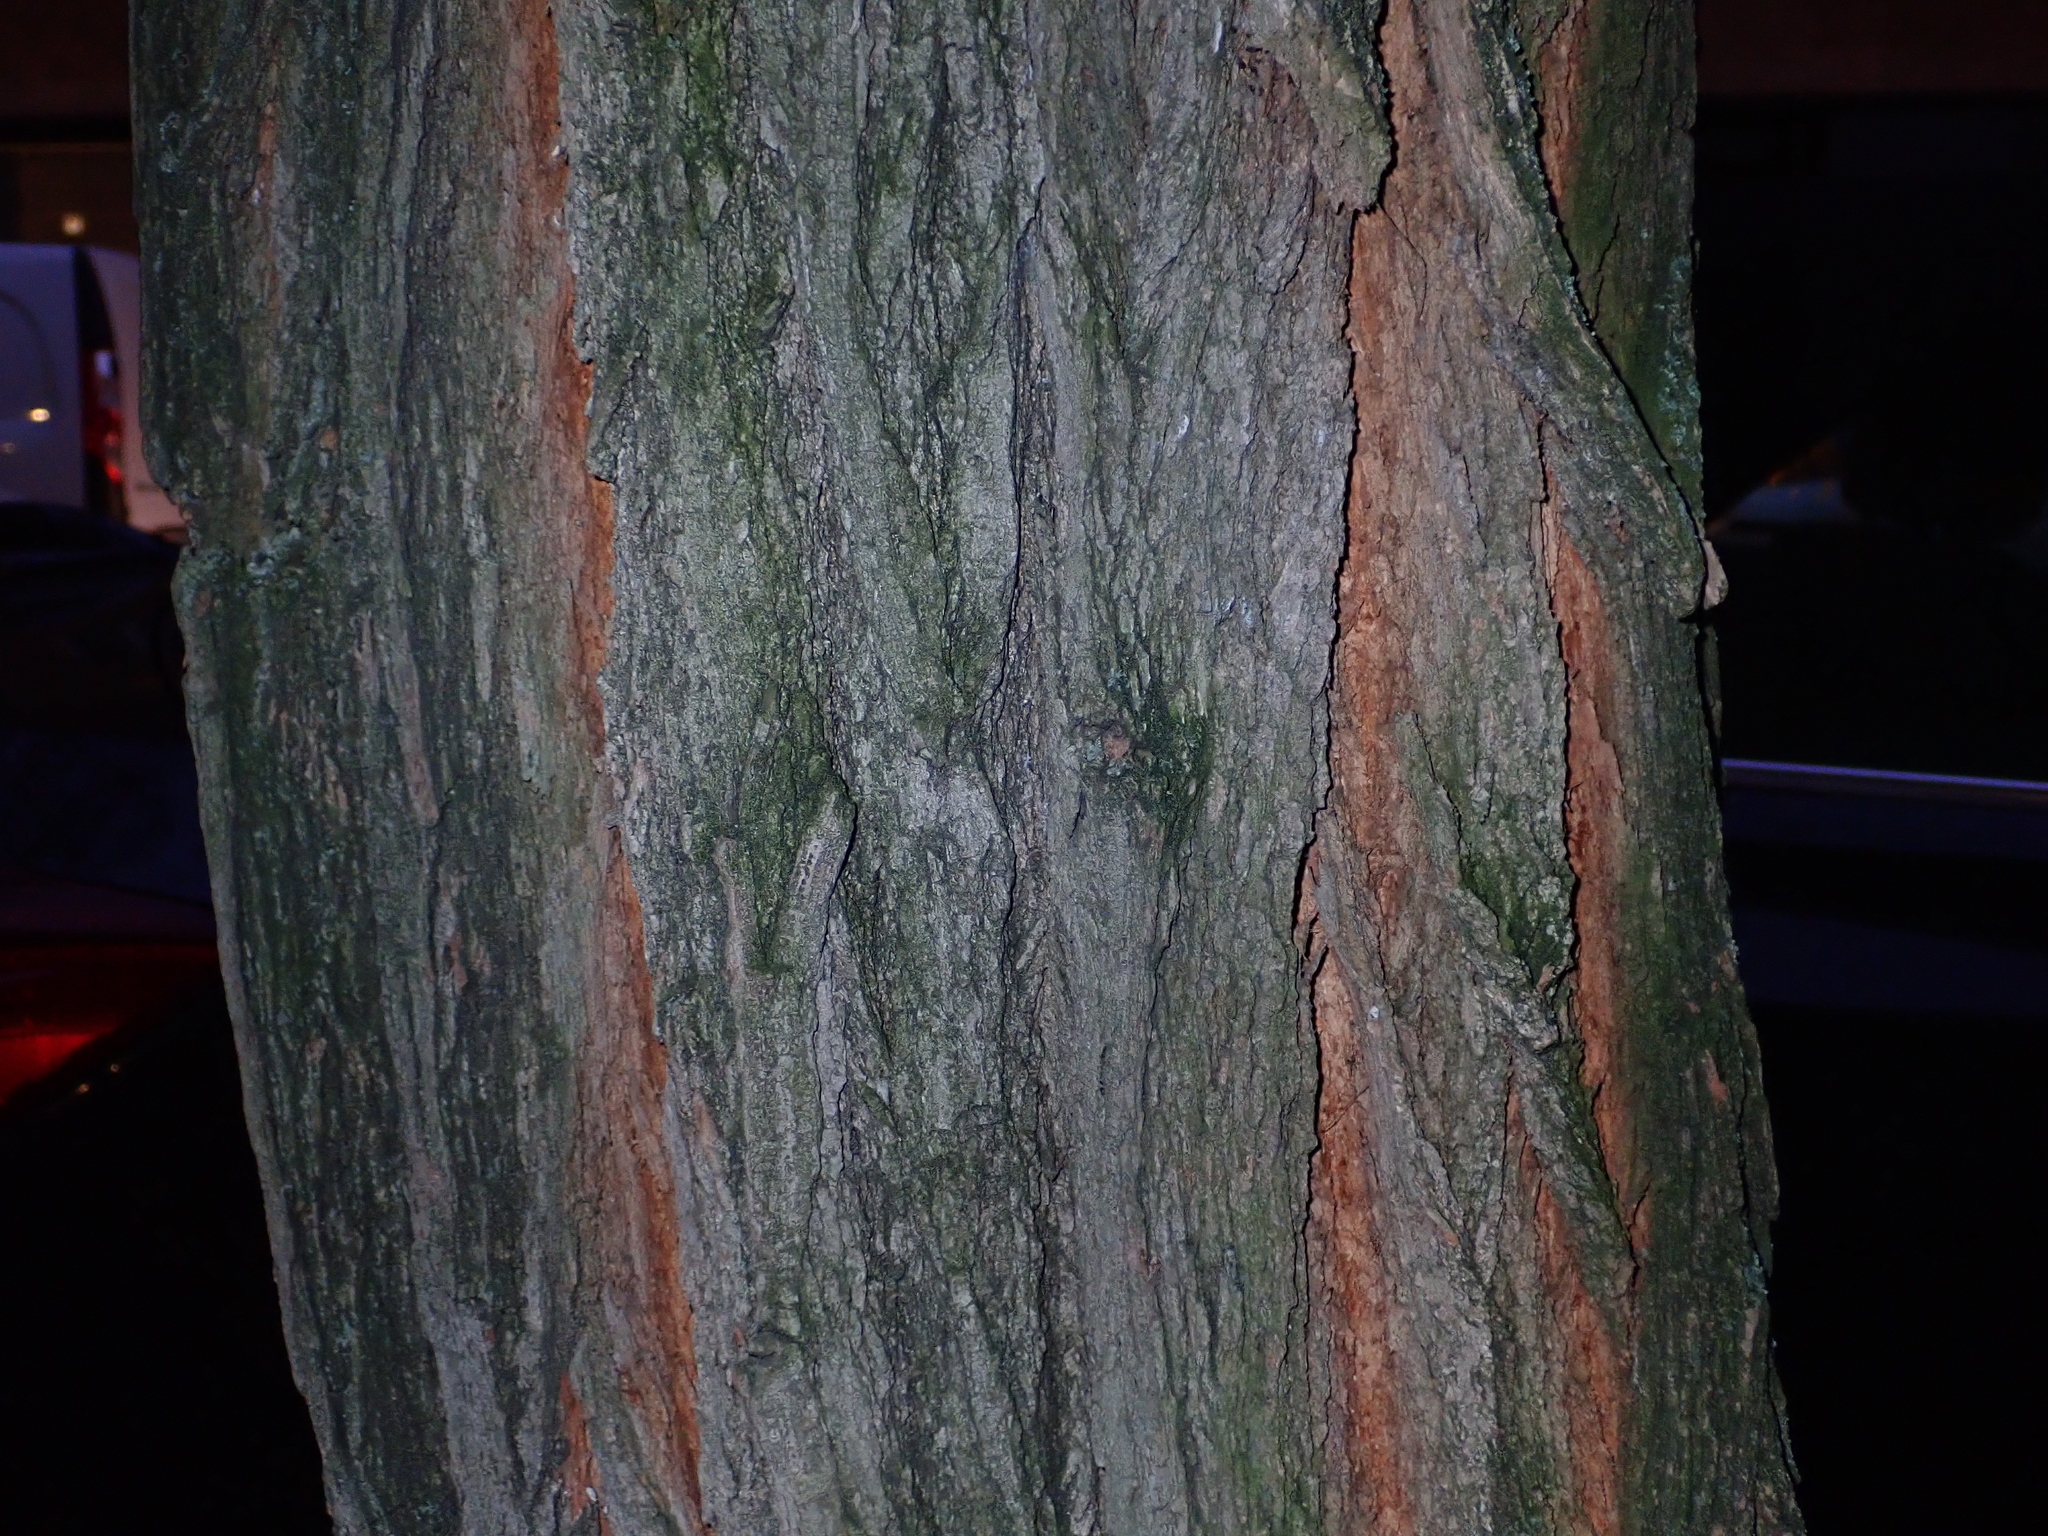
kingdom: Plantae
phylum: Tracheophyta
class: Magnoliopsida
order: Fabales
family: Fabaceae
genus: Robinia
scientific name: Robinia pseudoacacia
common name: Black locust
